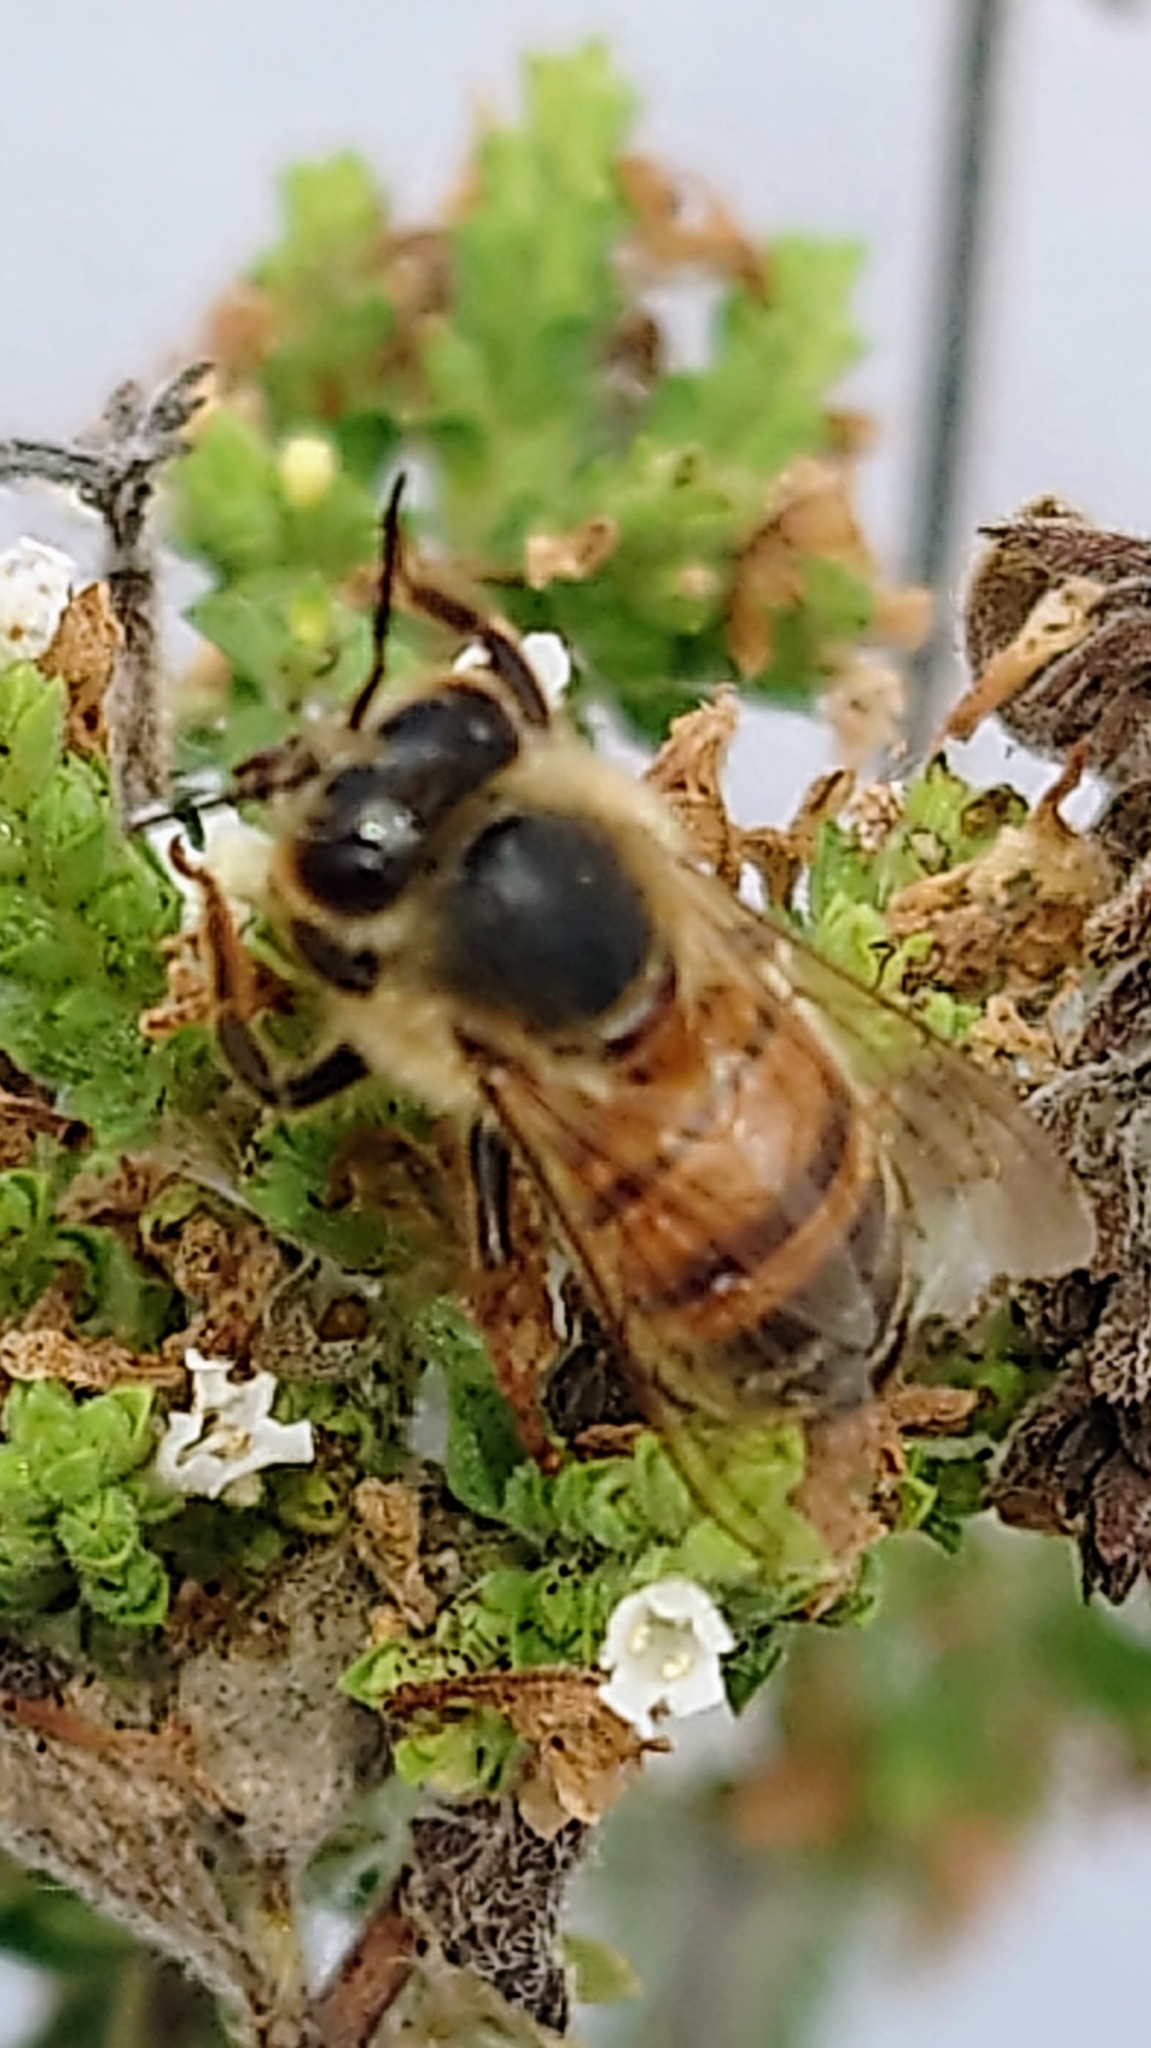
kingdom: Animalia
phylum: Arthropoda
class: Insecta
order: Hymenoptera
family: Apidae
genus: Apis
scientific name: Apis mellifera
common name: Honey bee
